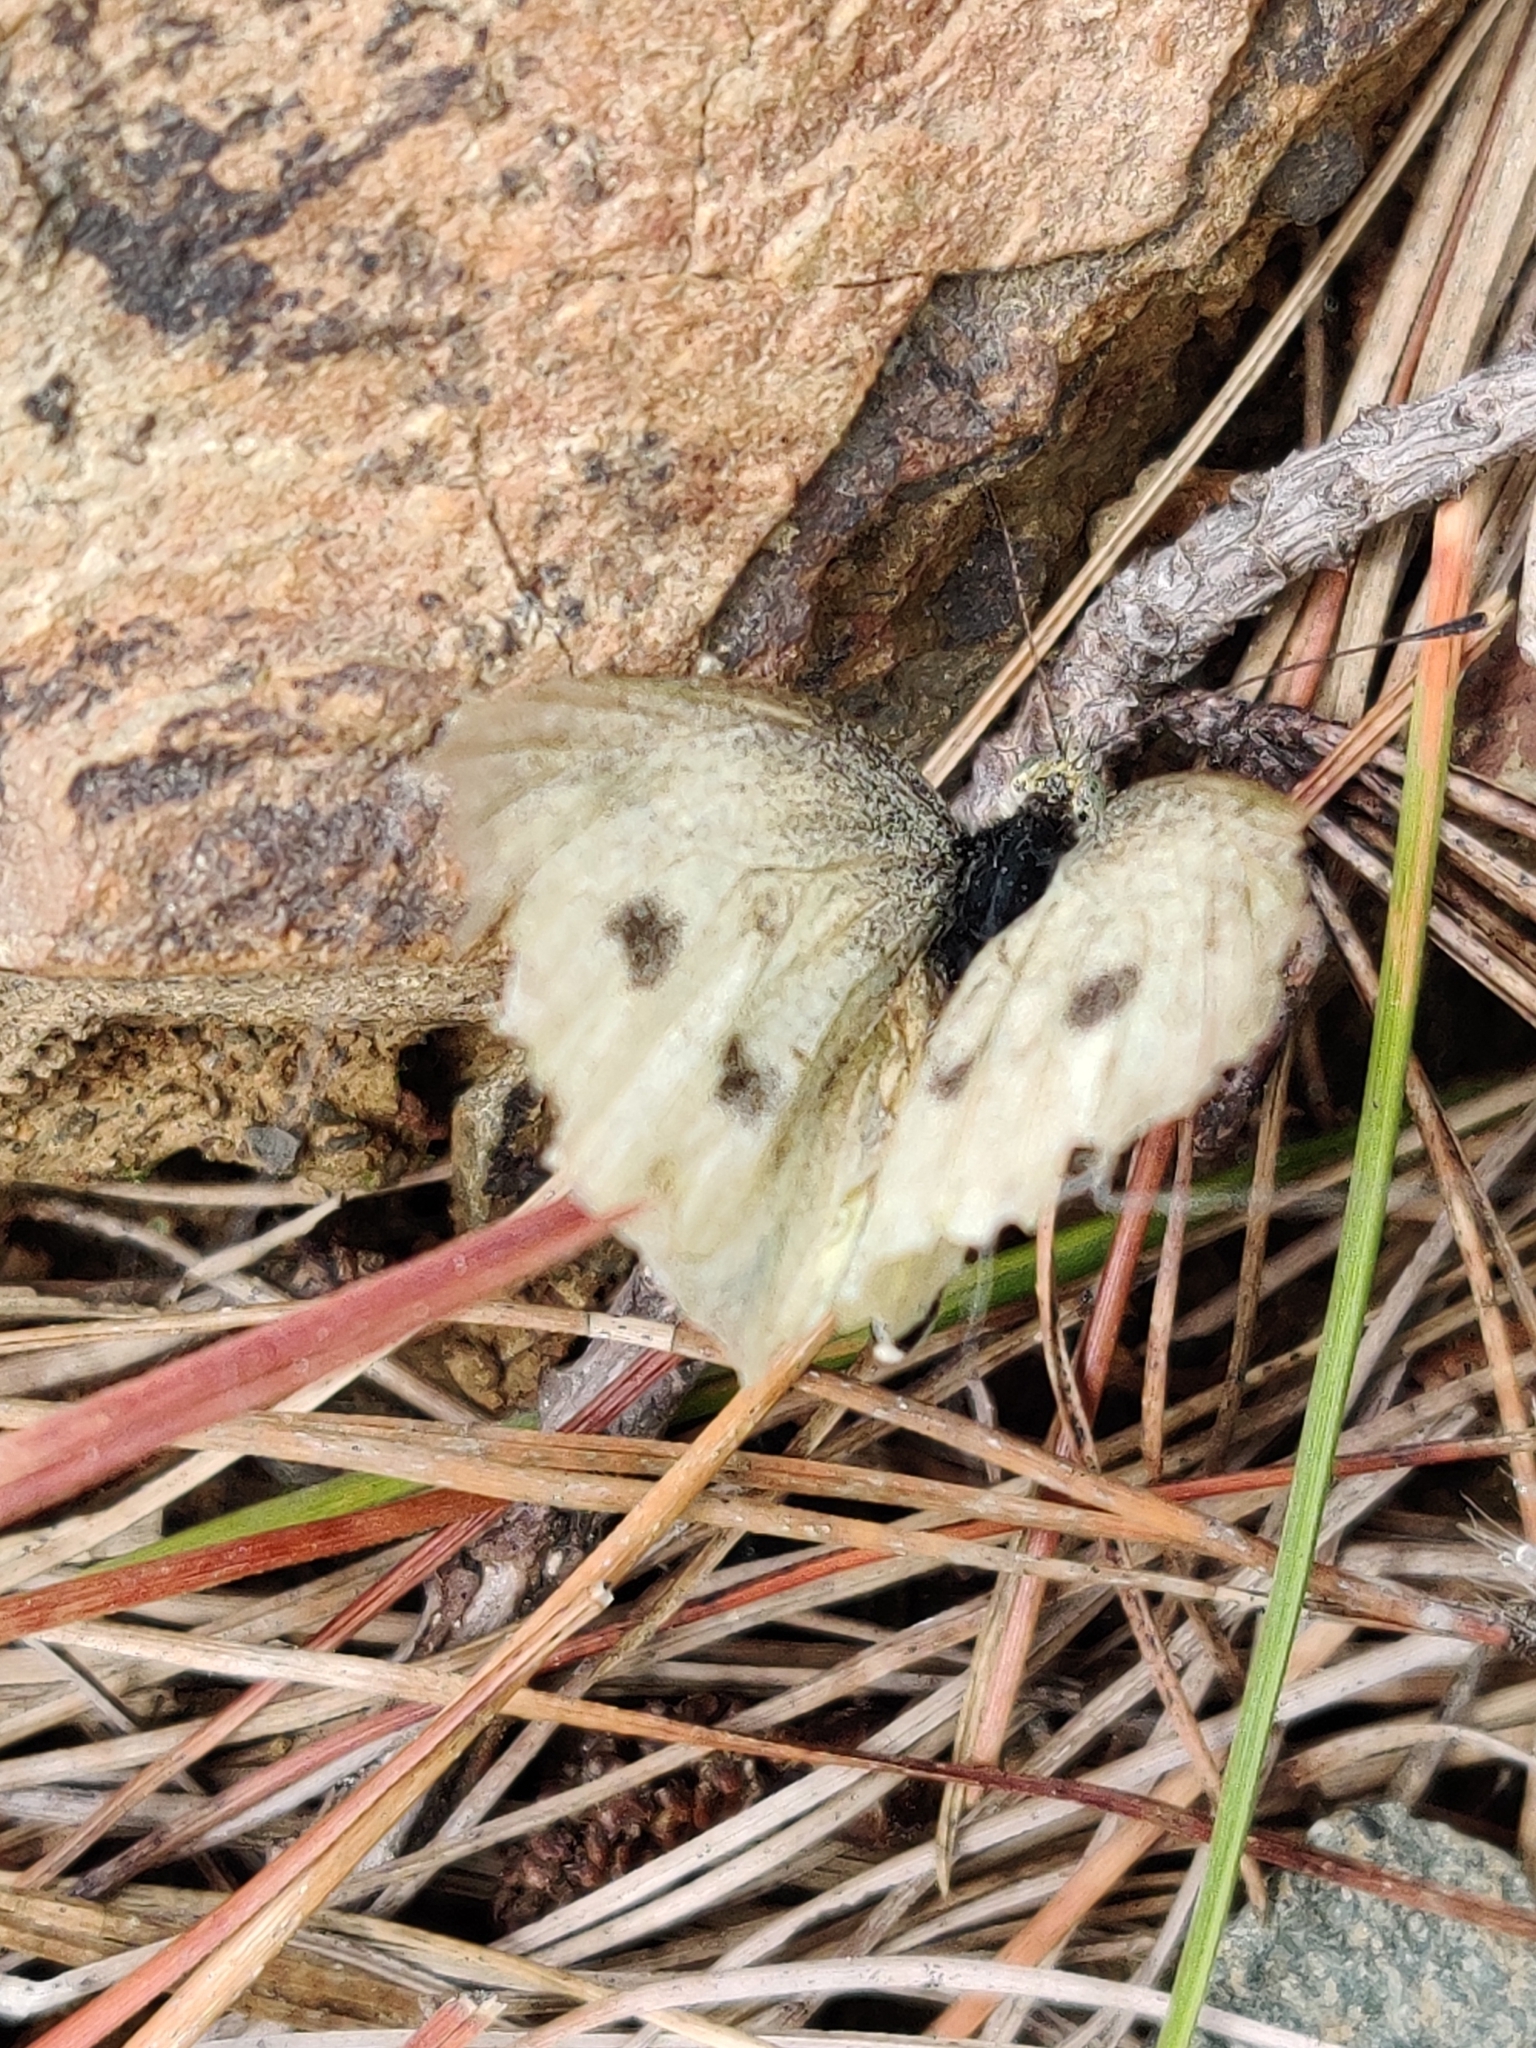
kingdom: Animalia
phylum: Arthropoda
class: Insecta
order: Lepidoptera
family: Pieridae
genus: Pieris
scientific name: Pieris rapae
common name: Small white
